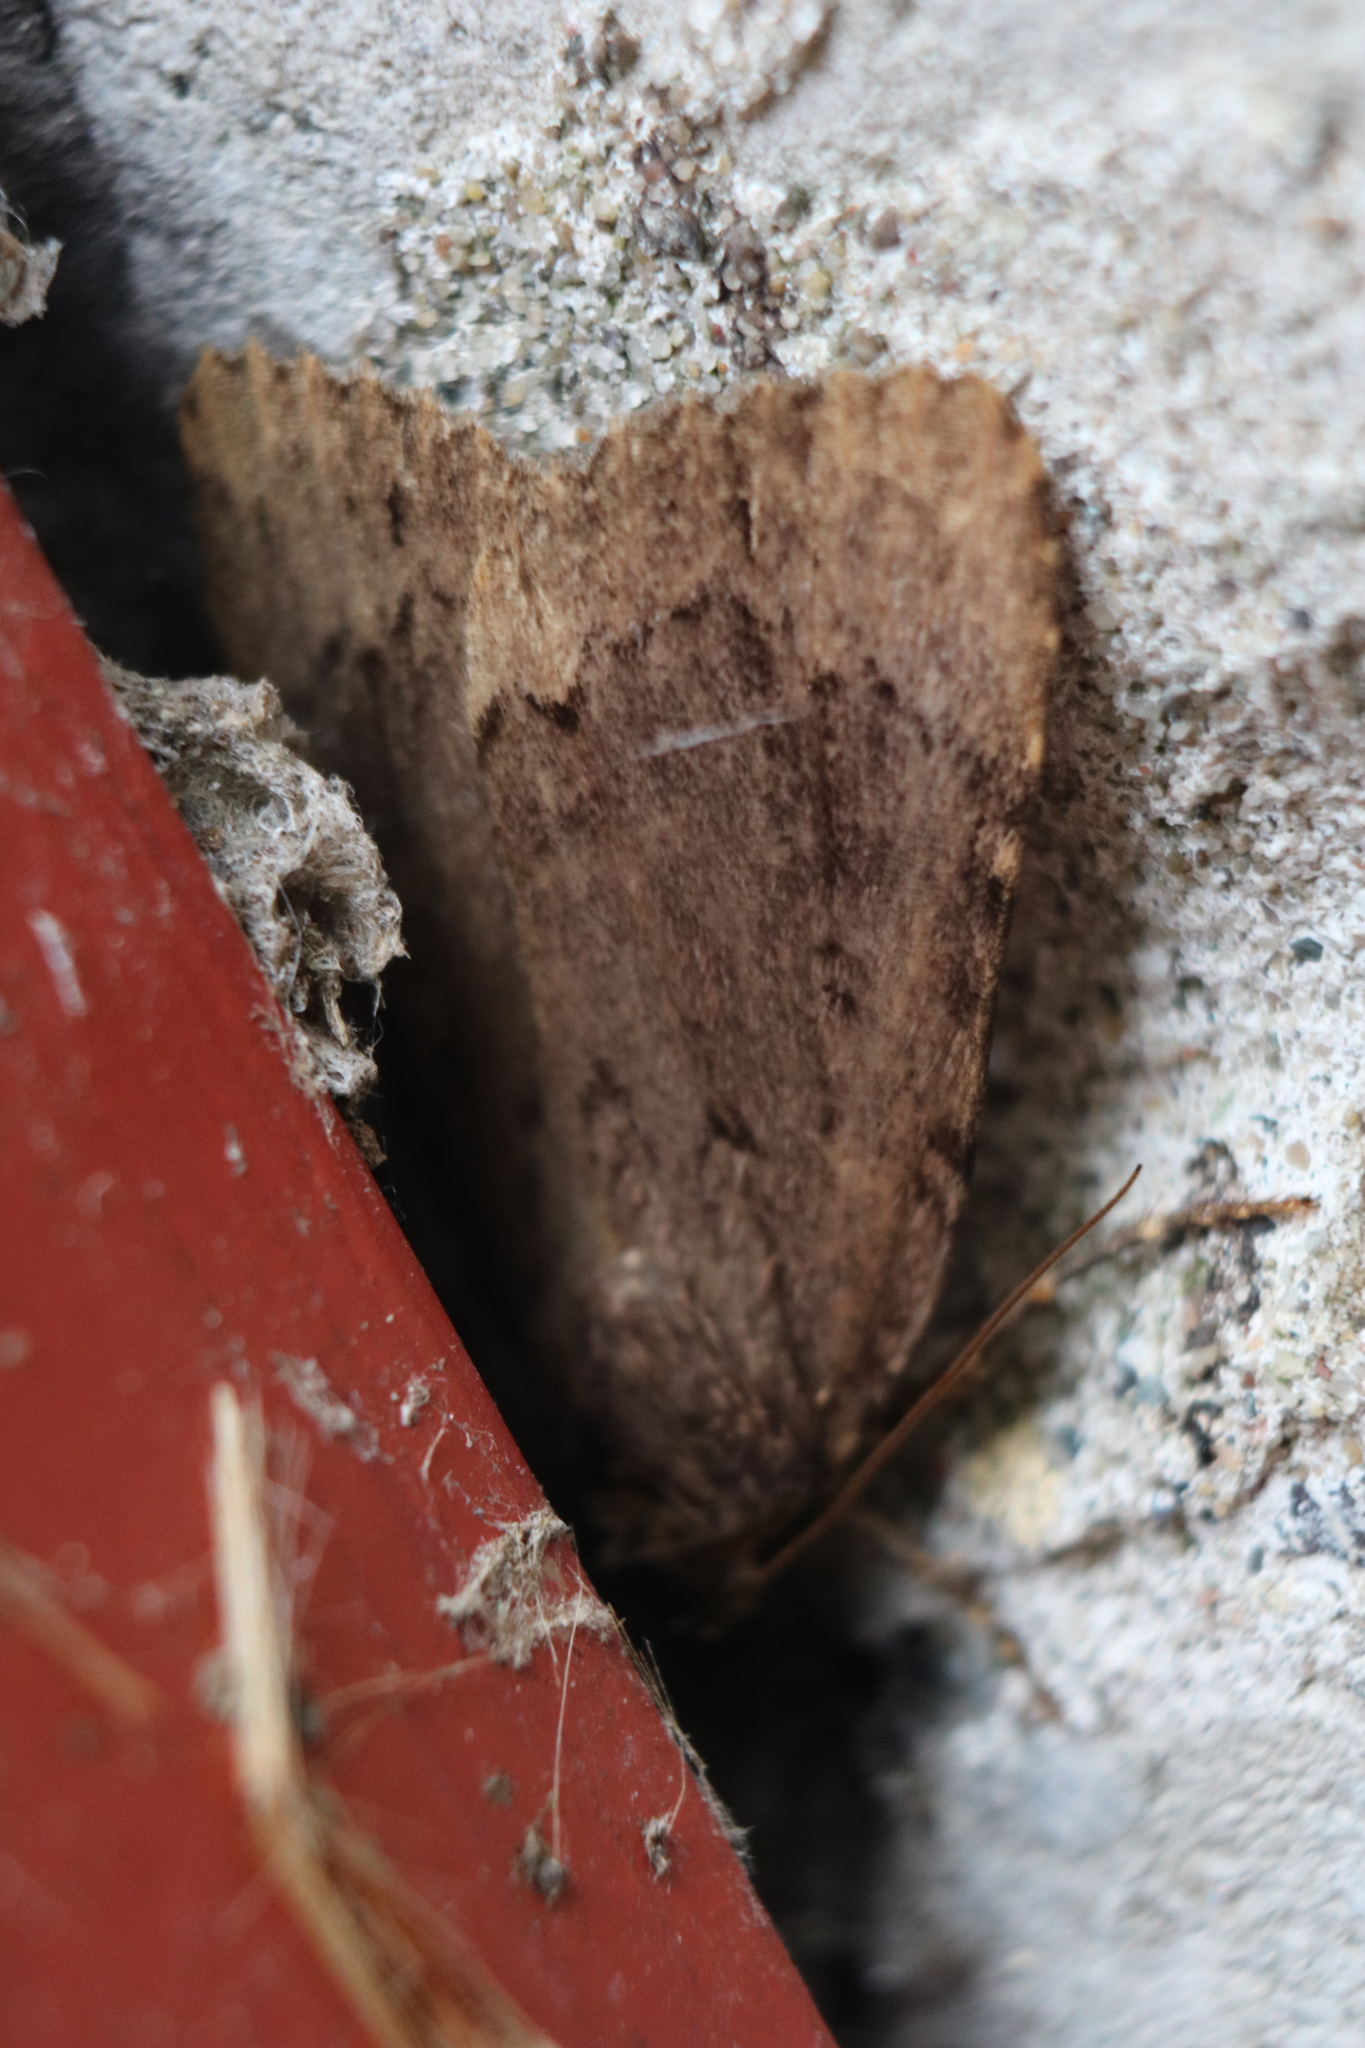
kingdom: Animalia
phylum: Arthropoda
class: Insecta
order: Lepidoptera
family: Noctuidae
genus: Amphipyra
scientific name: Amphipyra pyramidoides
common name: American copper underwing
